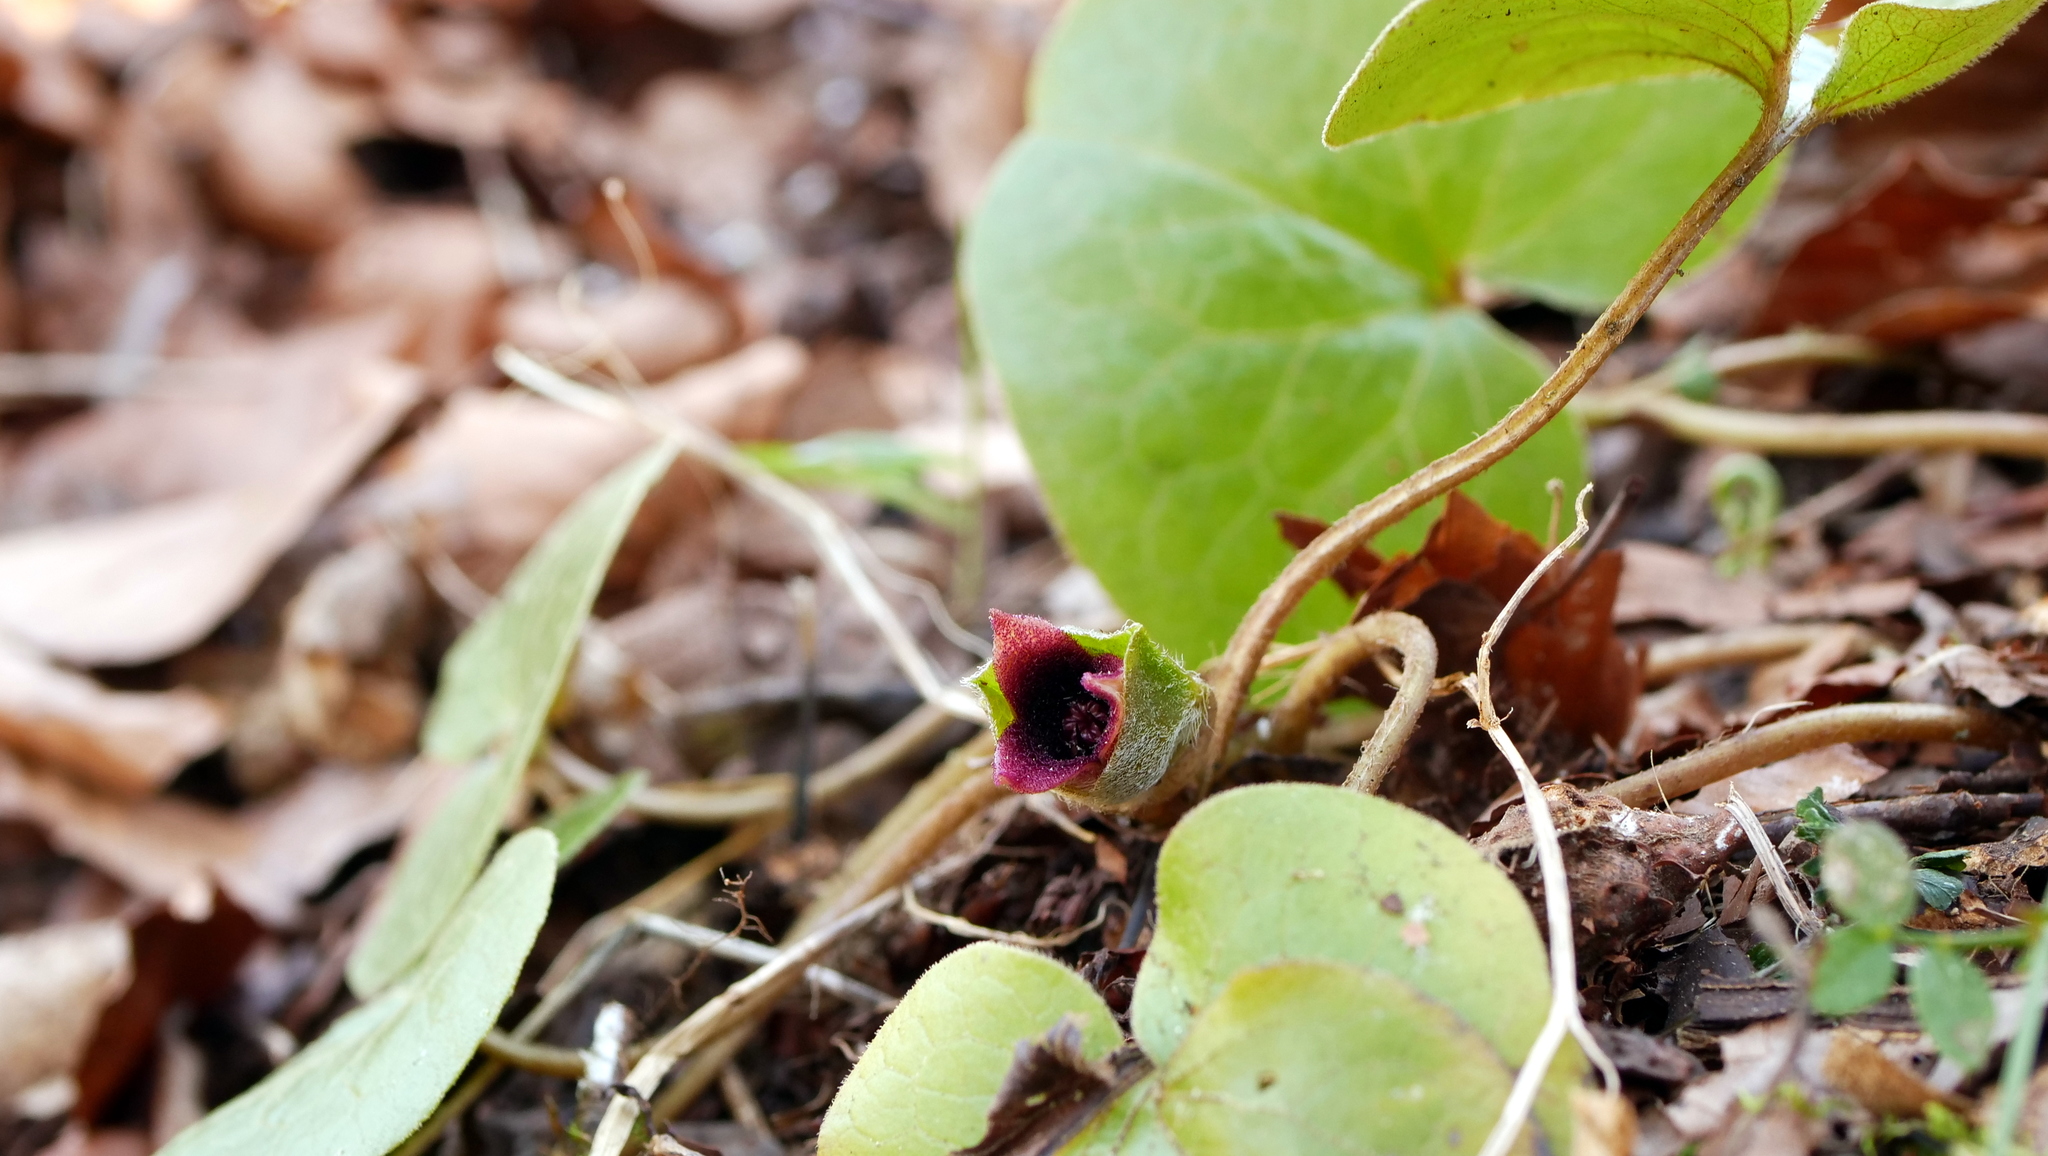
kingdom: Plantae
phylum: Tracheophyta
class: Magnoliopsida
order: Piperales
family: Aristolochiaceae
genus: Asarum
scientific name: Asarum europaeum
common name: Asarabacca
